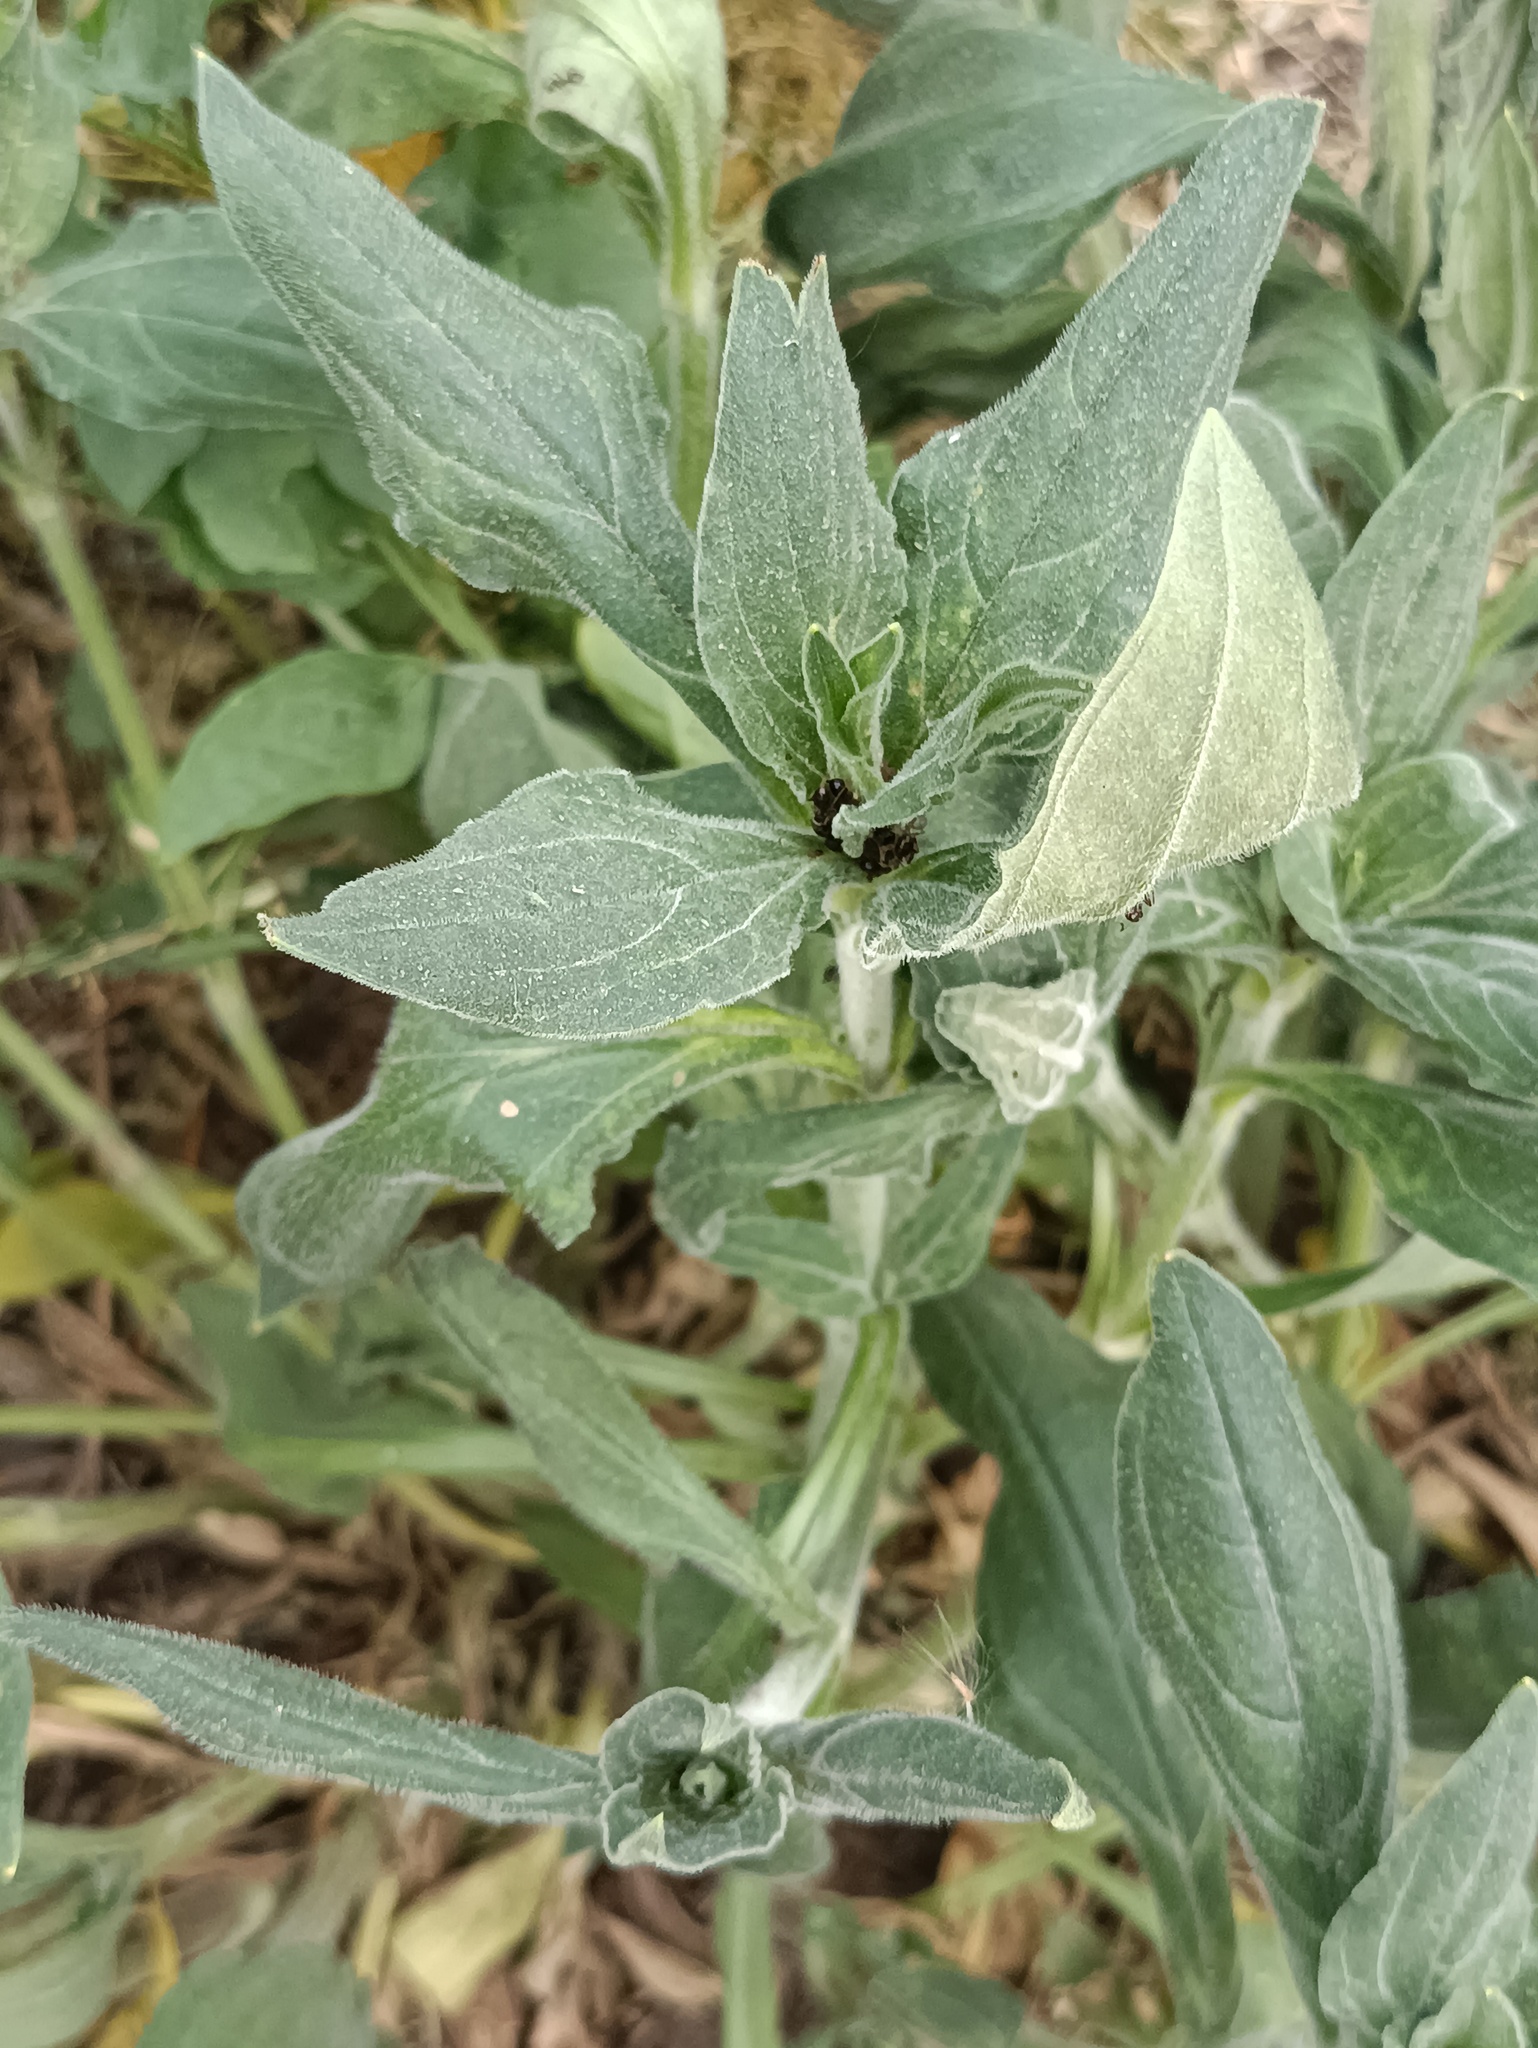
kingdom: Plantae
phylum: Tracheophyta
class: Magnoliopsida
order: Caryophyllales
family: Caryophyllaceae
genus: Silene
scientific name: Silene latifolia
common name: White campion
